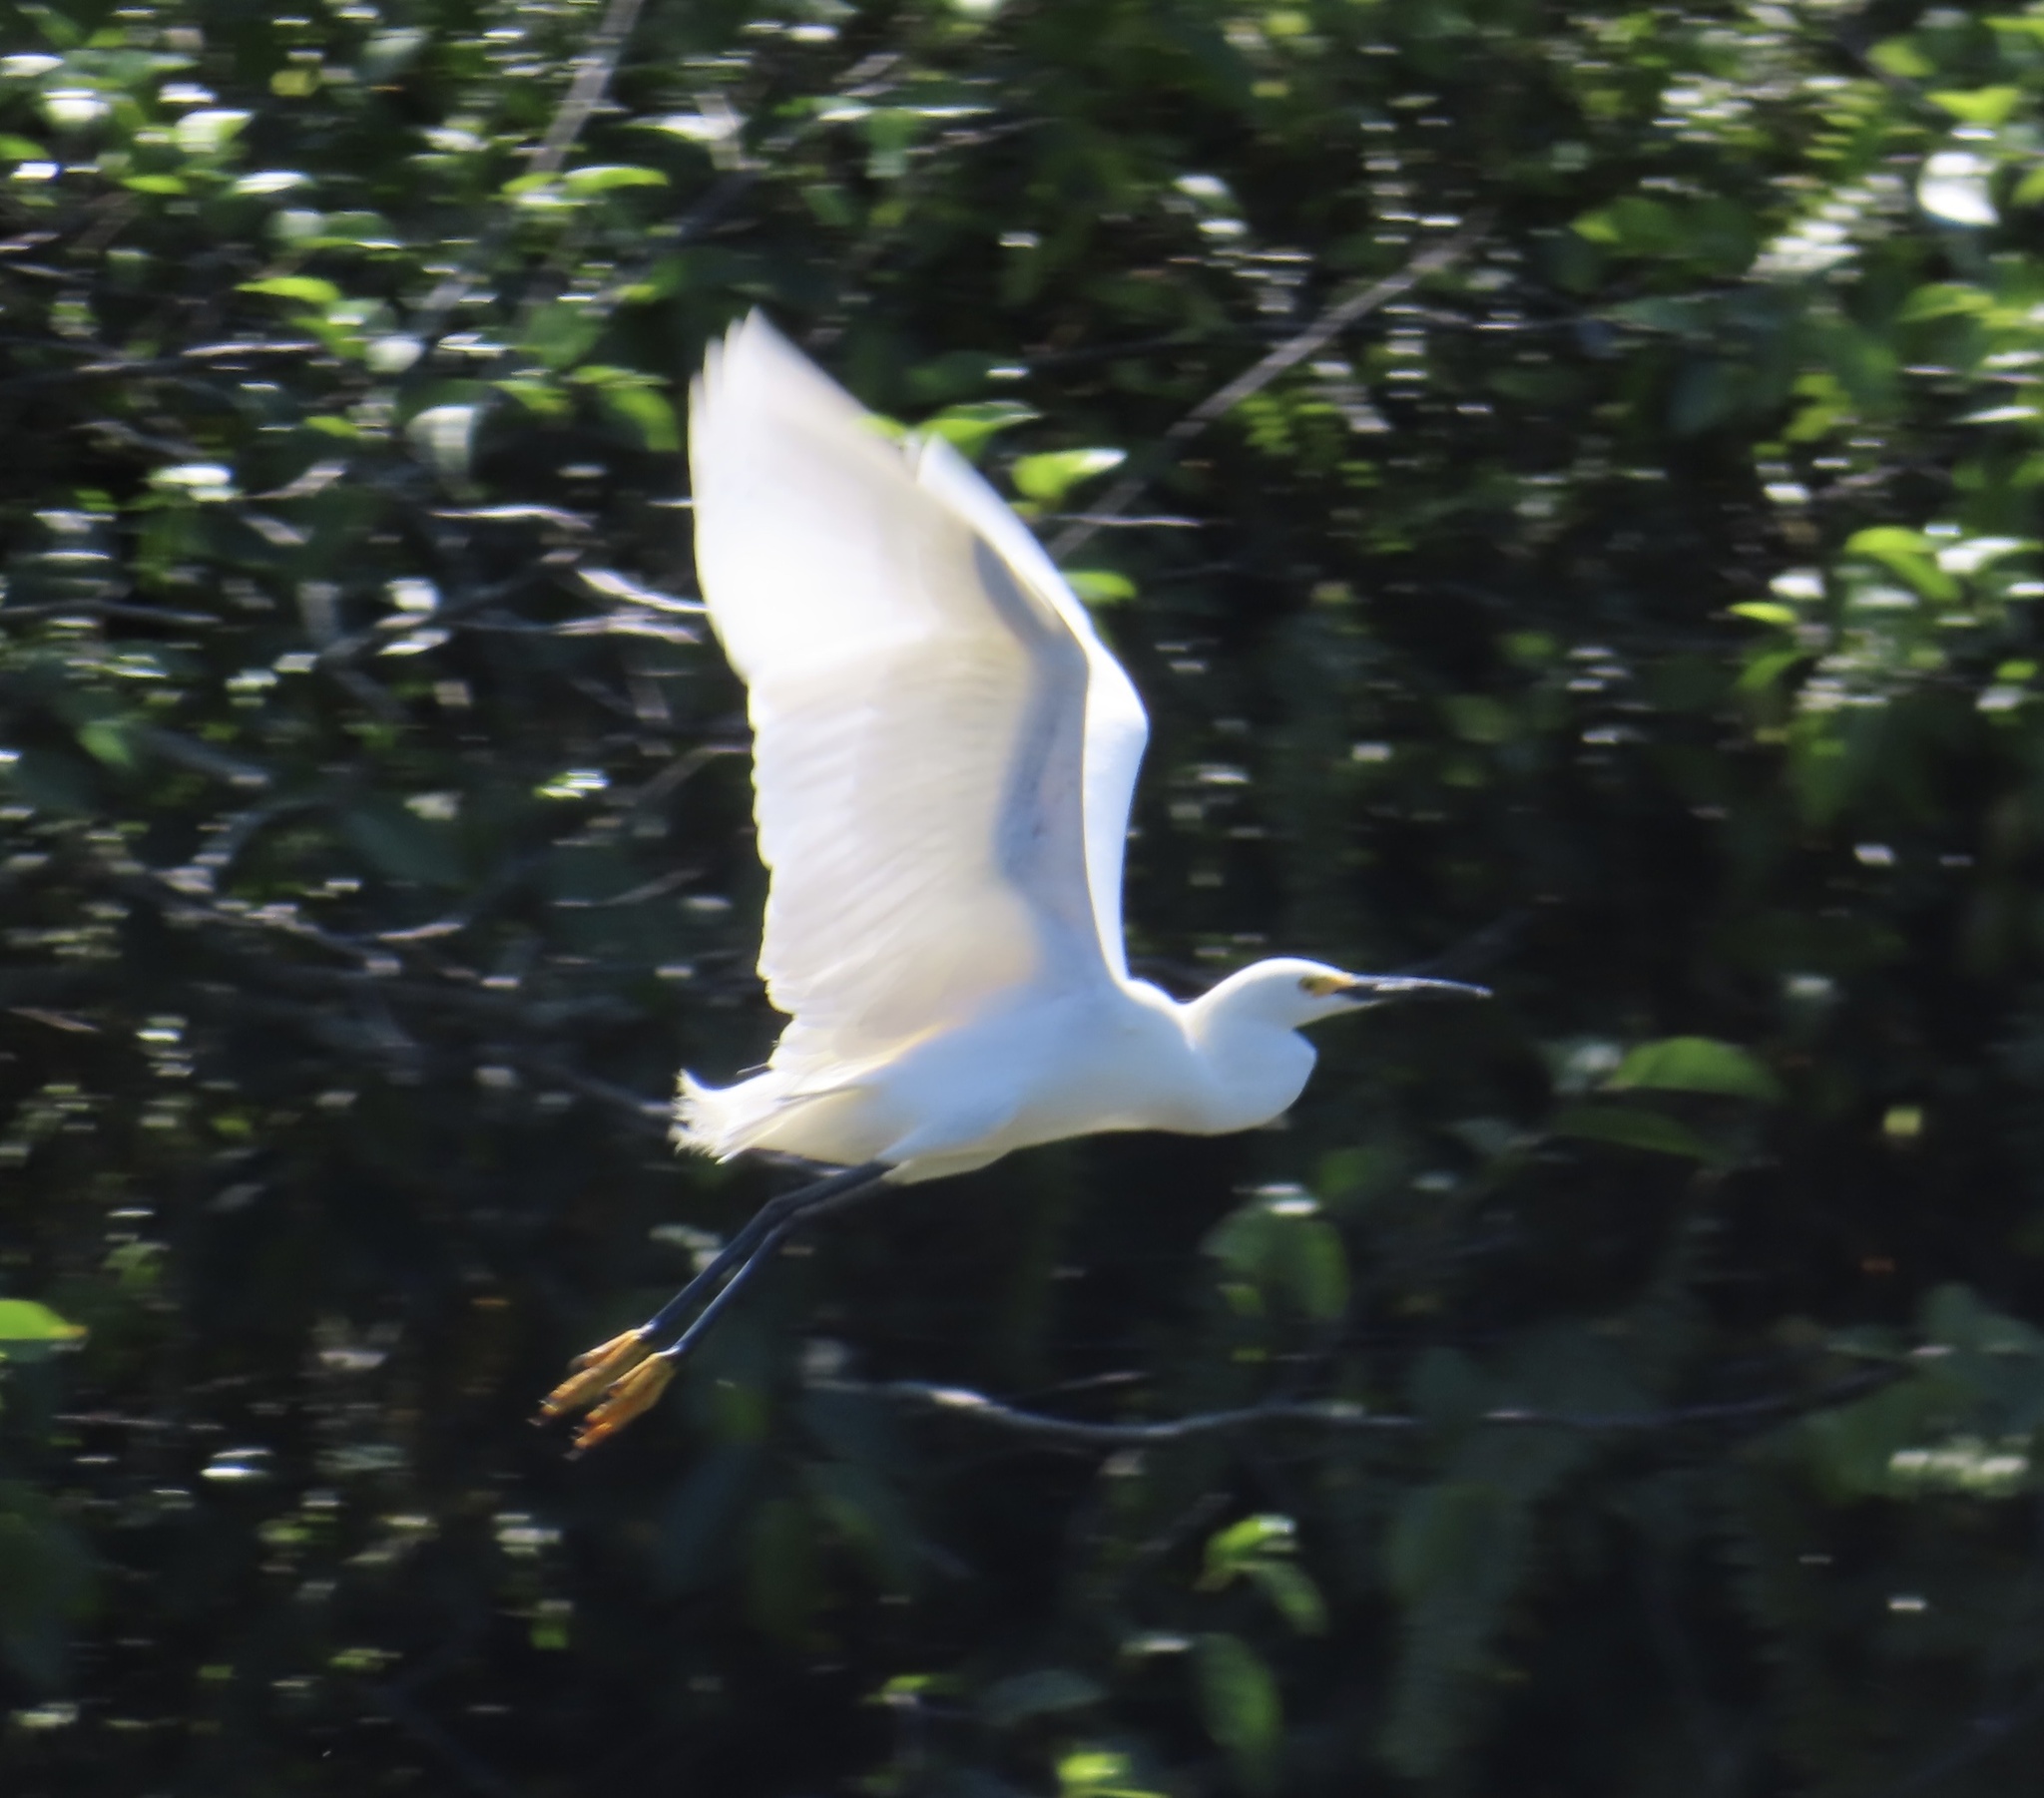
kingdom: Animalia
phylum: Chordata
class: Aves
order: Pelecaniformes
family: Ardeidae
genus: Egretta
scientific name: Egretta thula
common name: Snowy egret
